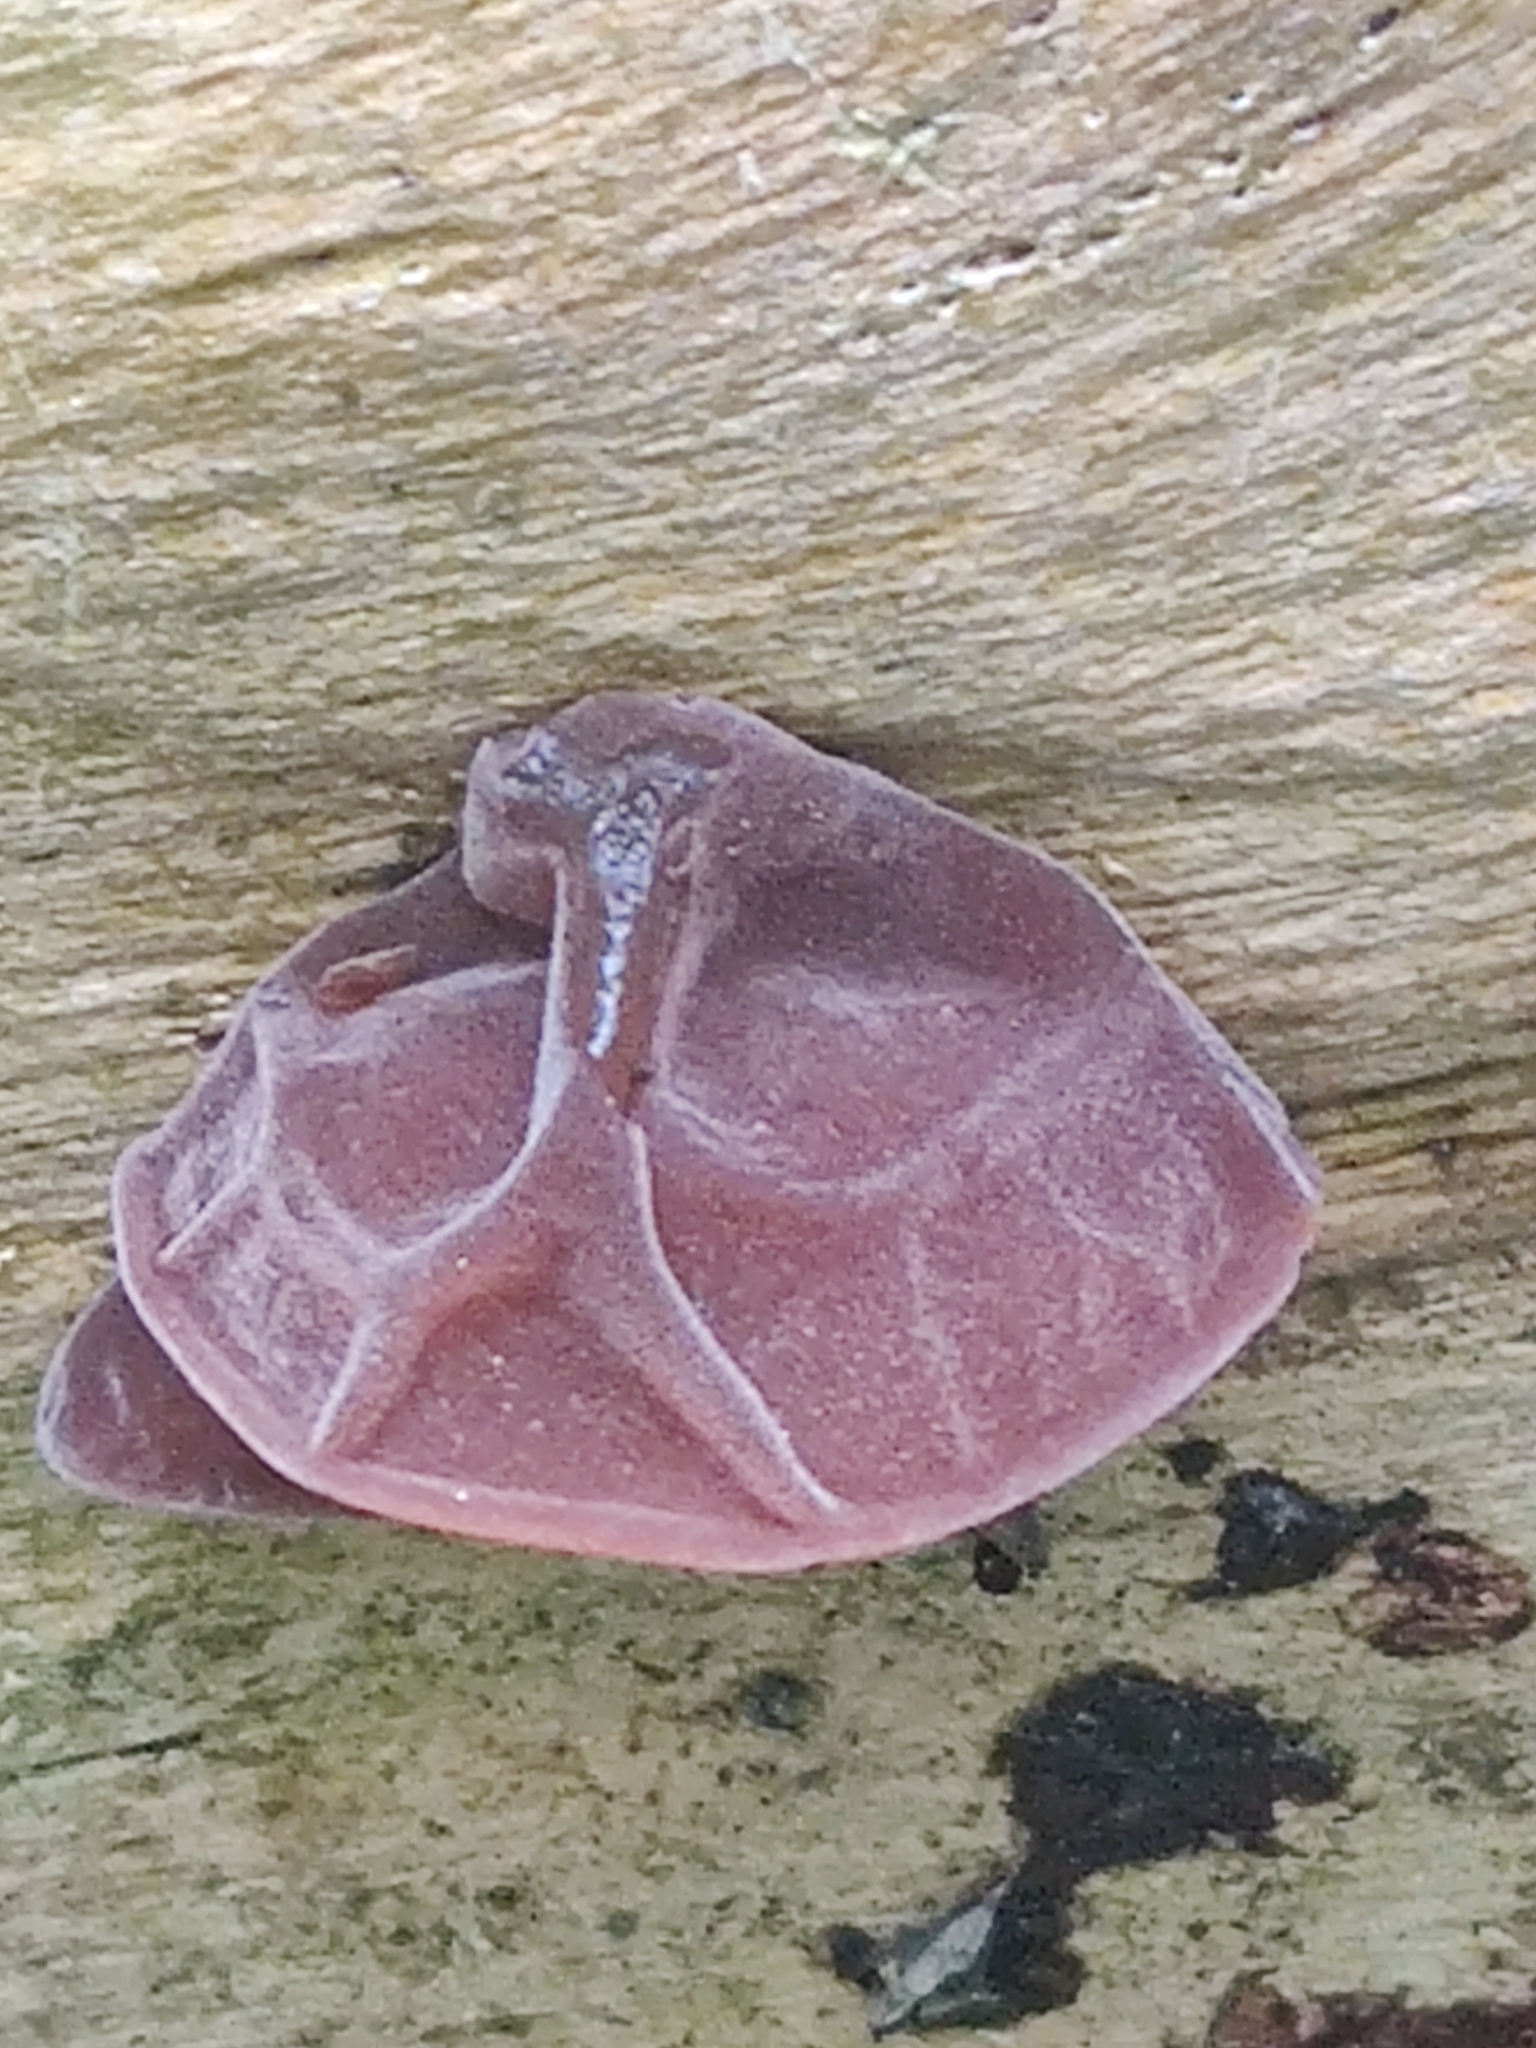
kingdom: Fungi
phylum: Basidiomycota
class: Agaricomycetes
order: Auriculariales
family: Auriculariaceae
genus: Auricularia
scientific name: Auricularia auricula-judae
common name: Jelly ear
